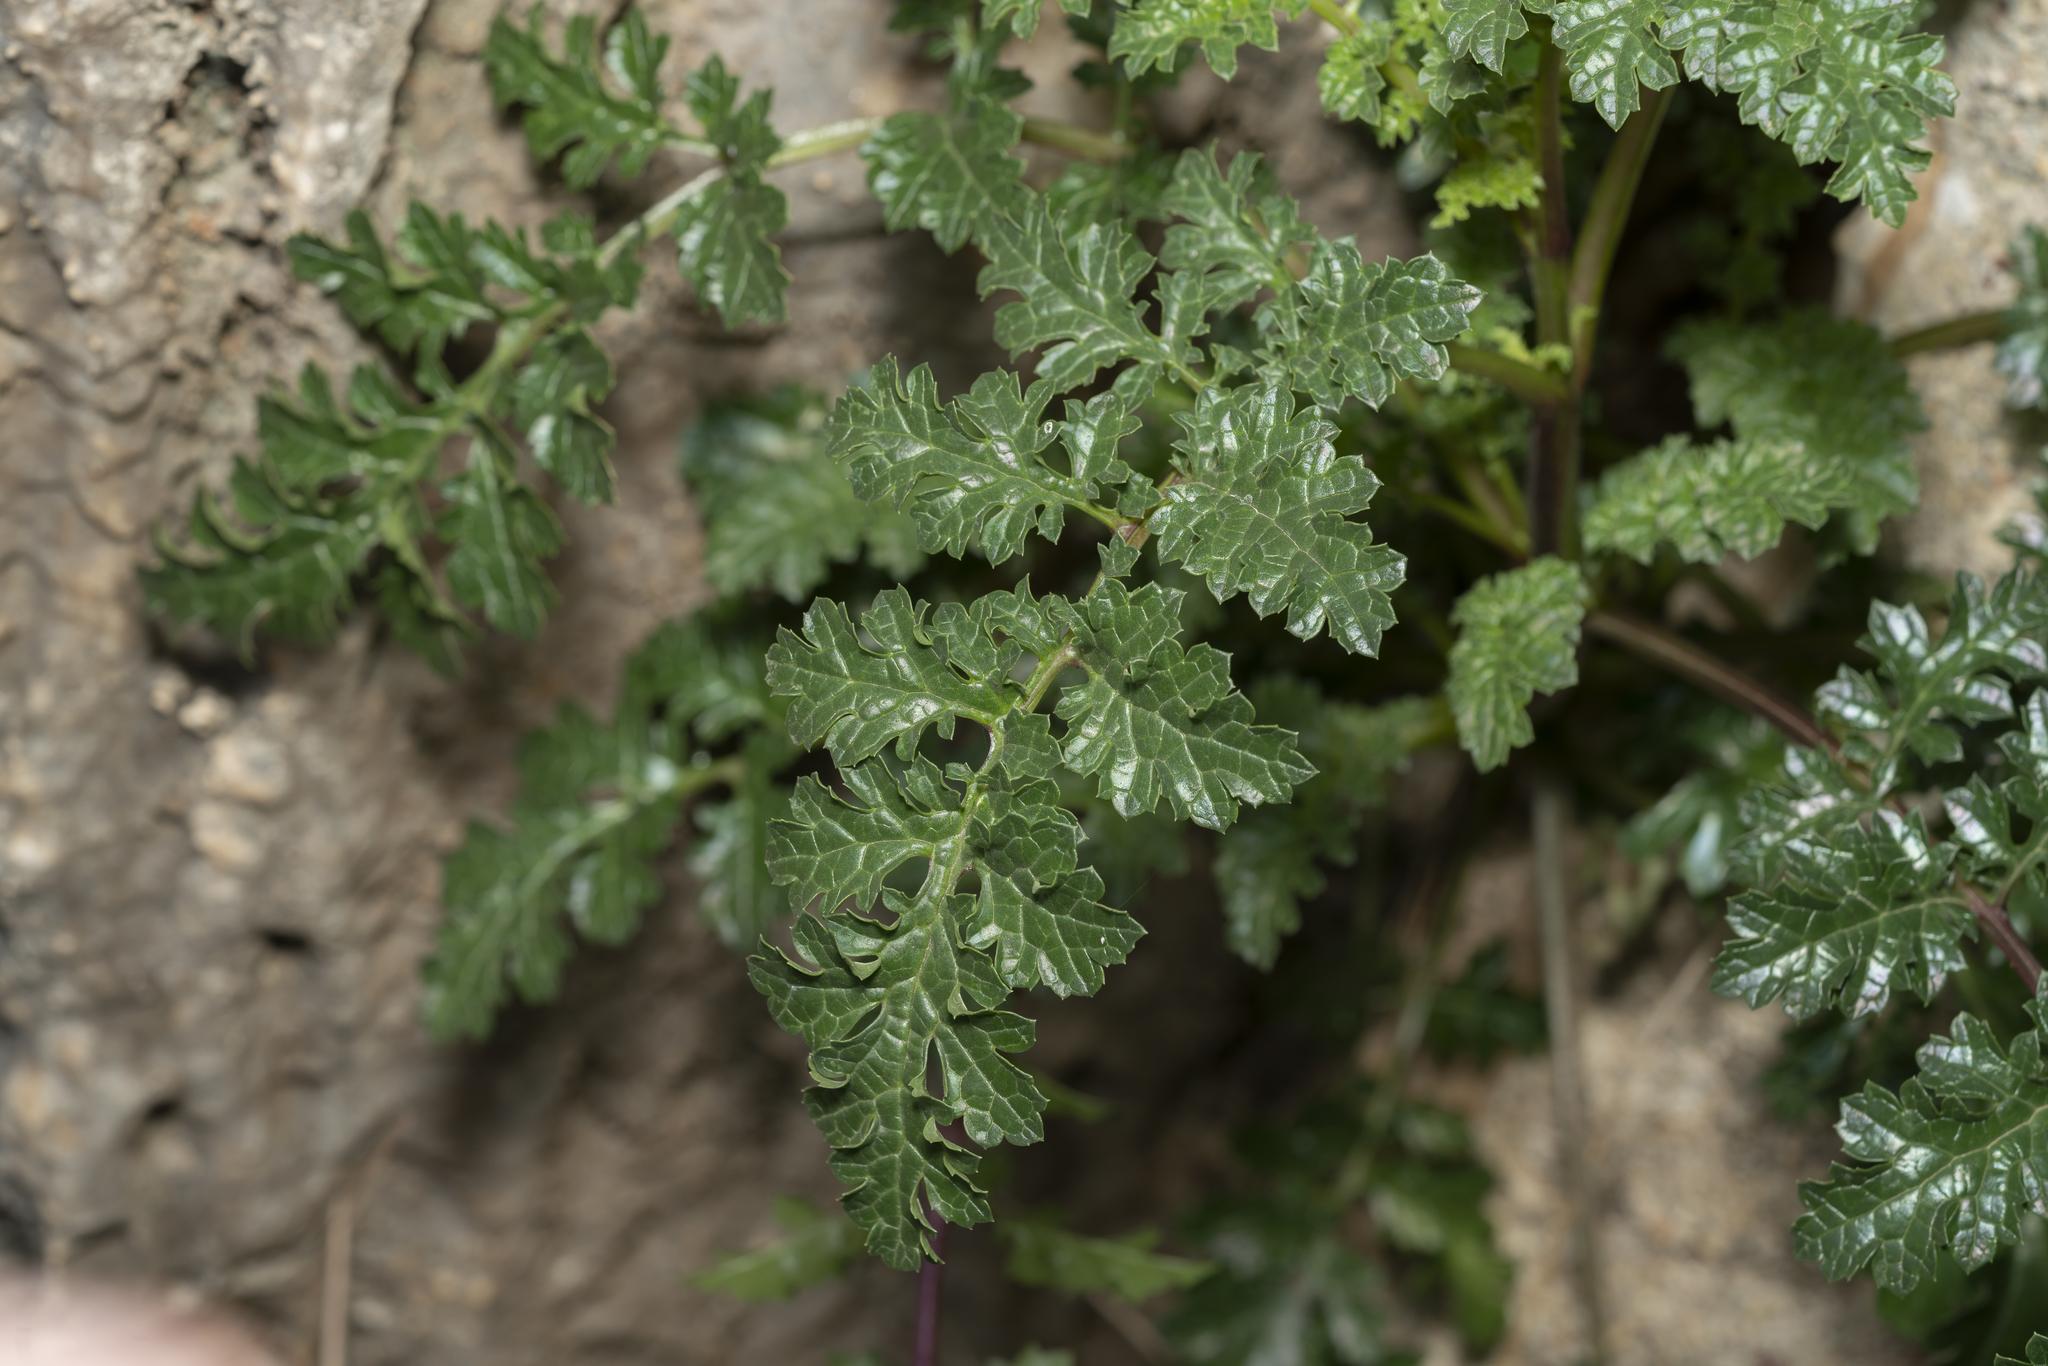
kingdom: Plantae
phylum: Tracheophyta
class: Magnoliopsida
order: Lamiales
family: Scrophulariaceae
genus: Scrophularia
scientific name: Scrophularia lucida
